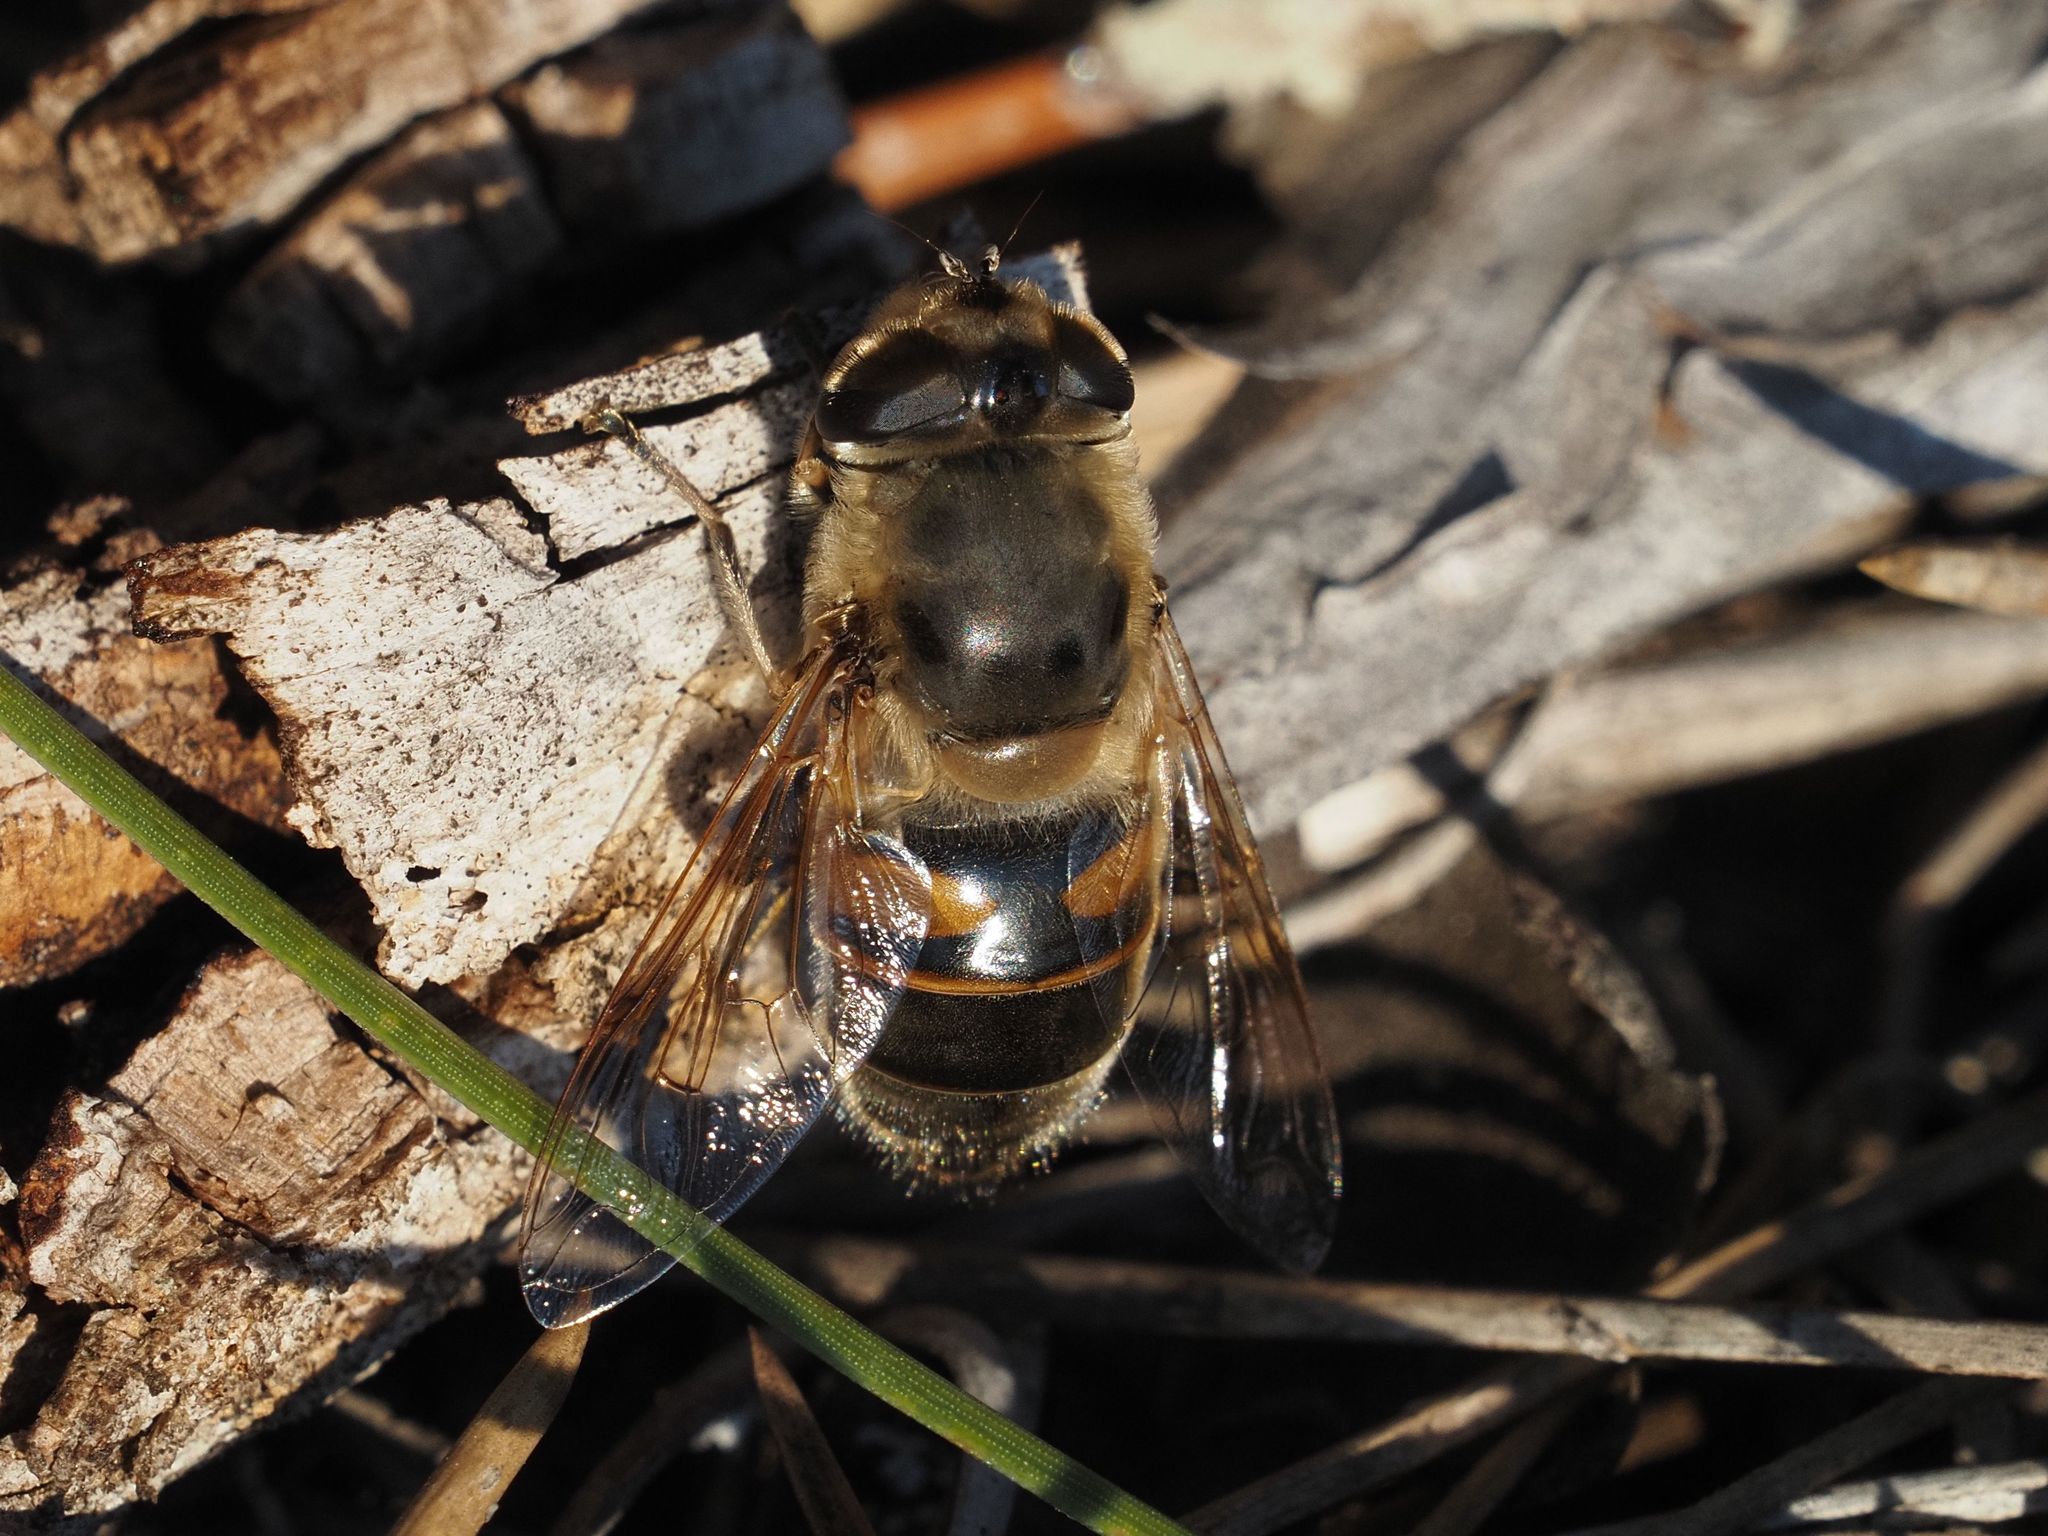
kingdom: Animalia
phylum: Arthropoda
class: Insecta
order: Diptera
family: Syrphidae
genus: Eristalis
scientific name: Eristalis tenax
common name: Drone fly
